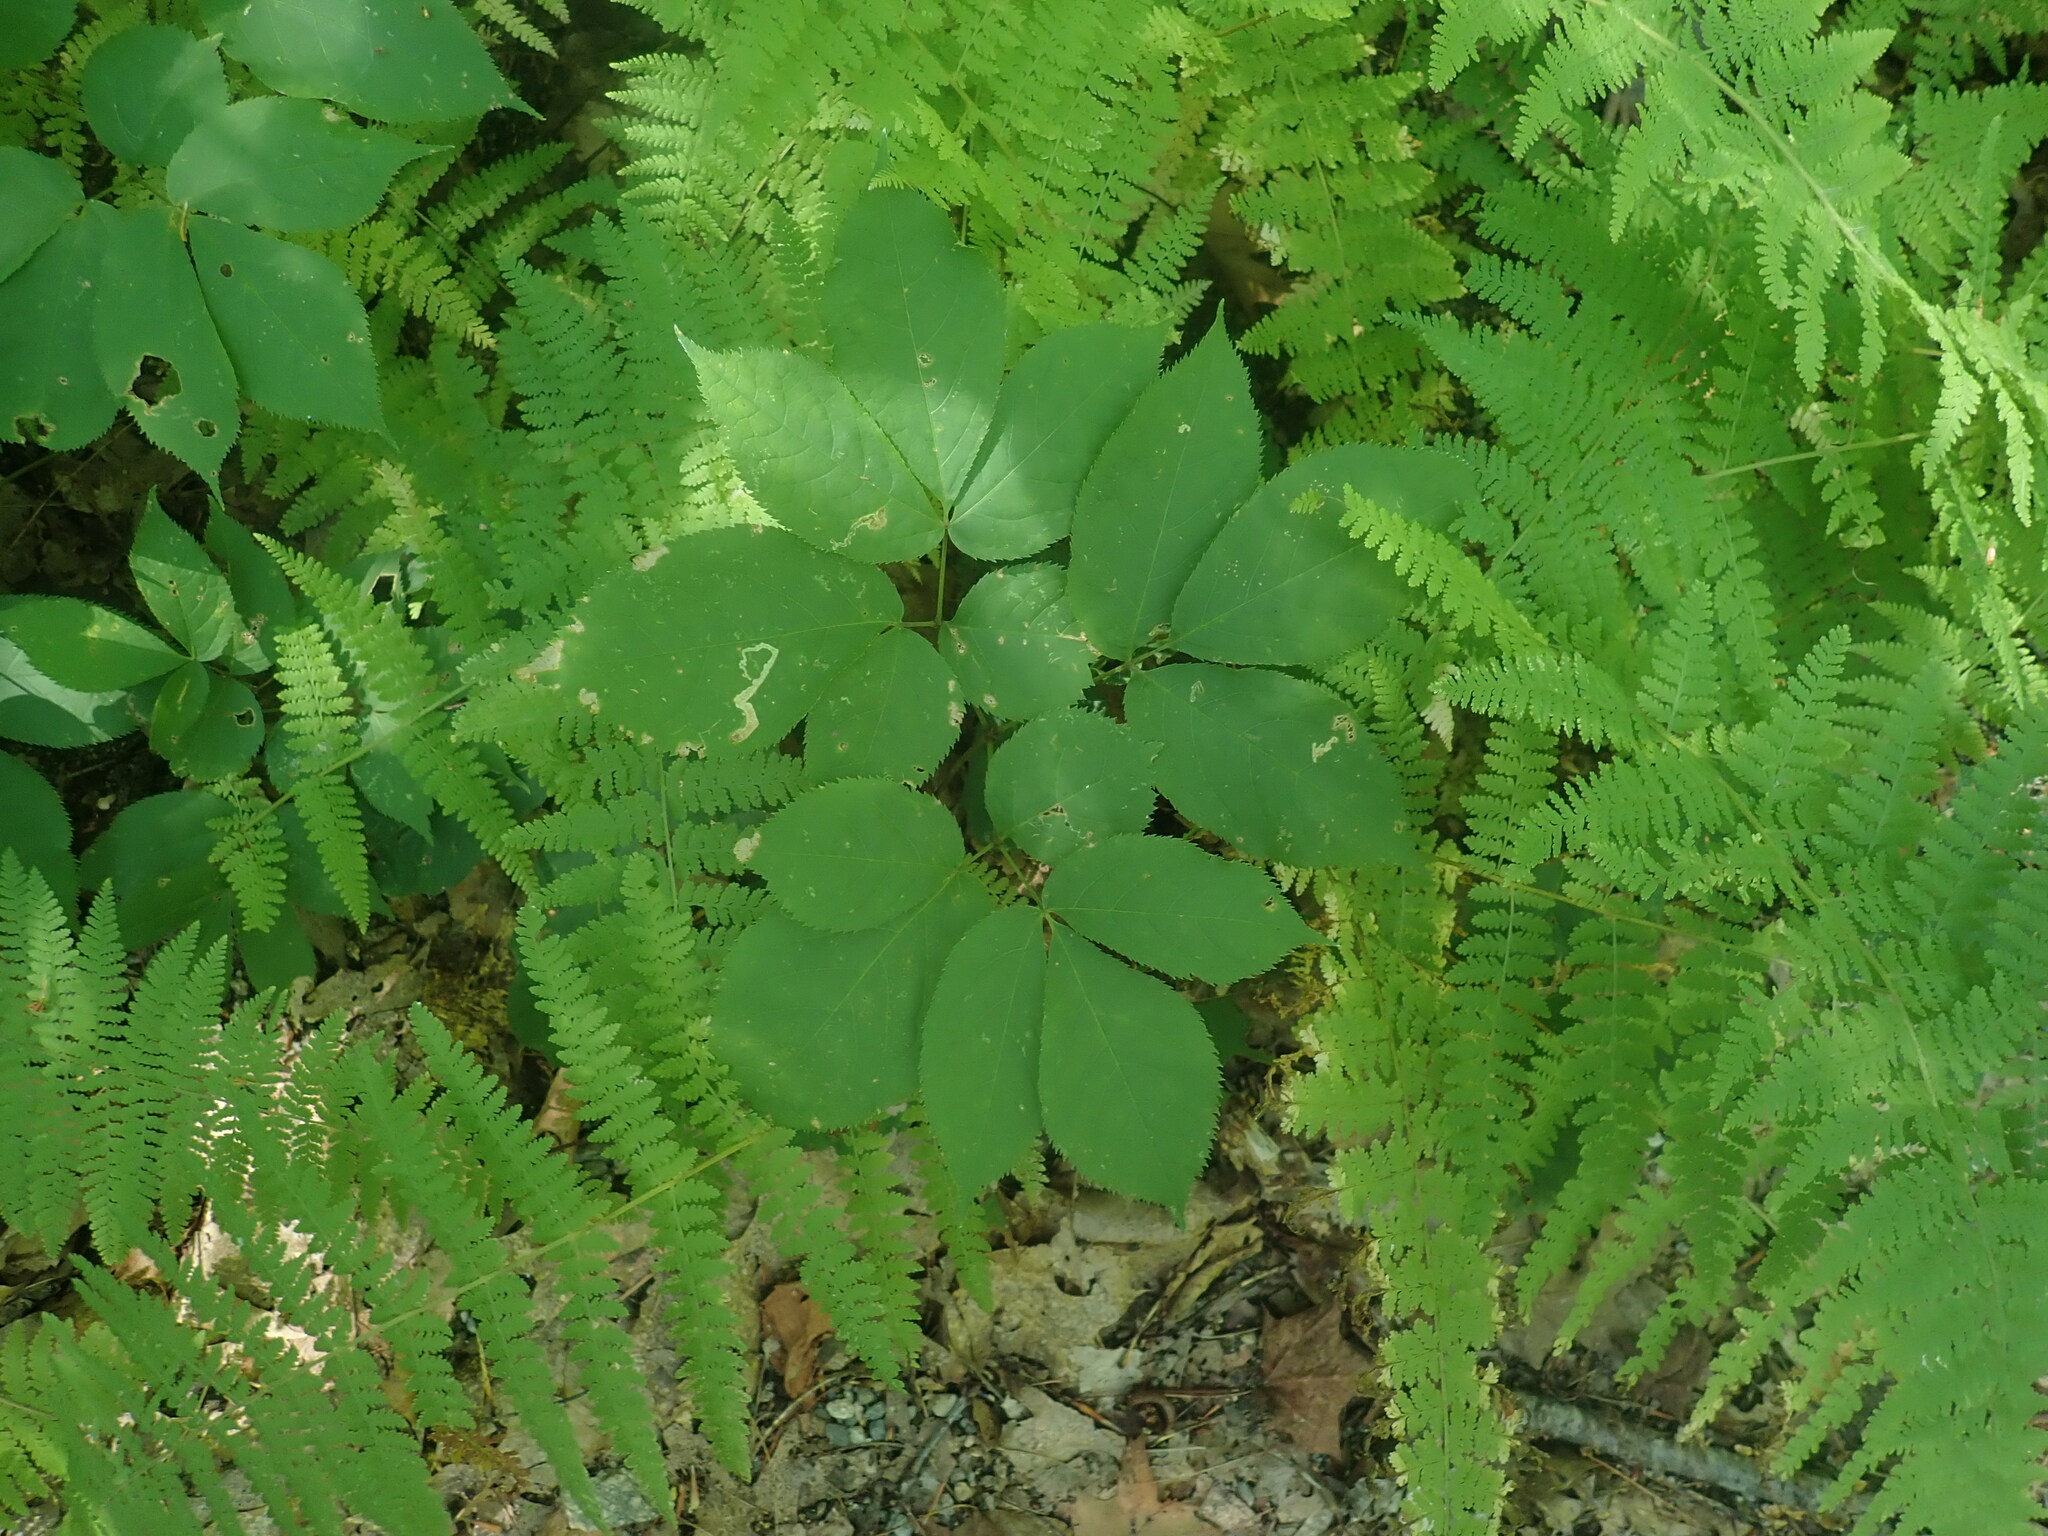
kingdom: Plantae
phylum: Tracheophyta
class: Magnoliopsida
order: Apiales
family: Araliaceae
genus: Aralia
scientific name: Aralia nudicaulis
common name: Wild sarsaparilla
